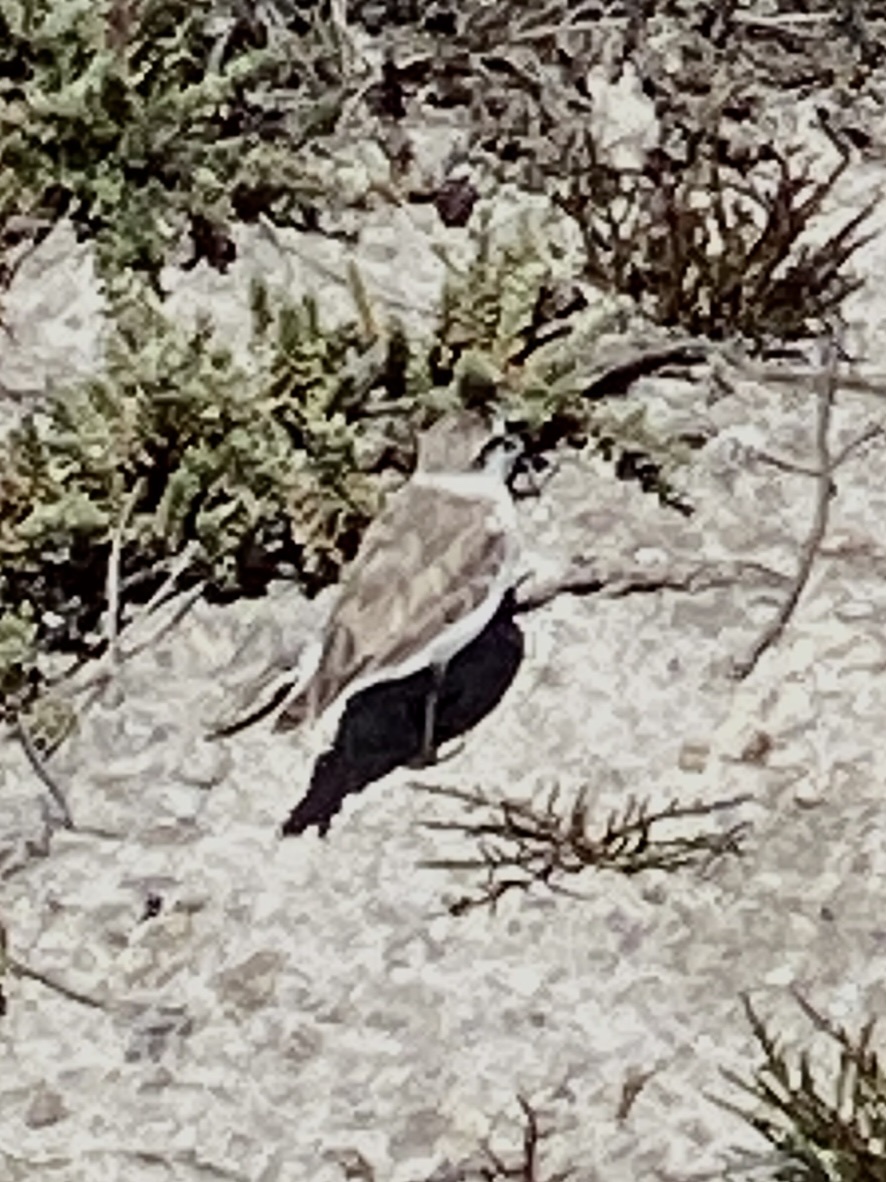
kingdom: Animalia
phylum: Chordata
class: Aves
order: Charadriiformes
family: Charadriidae
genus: Anarhynchus
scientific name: Anarhynchus
